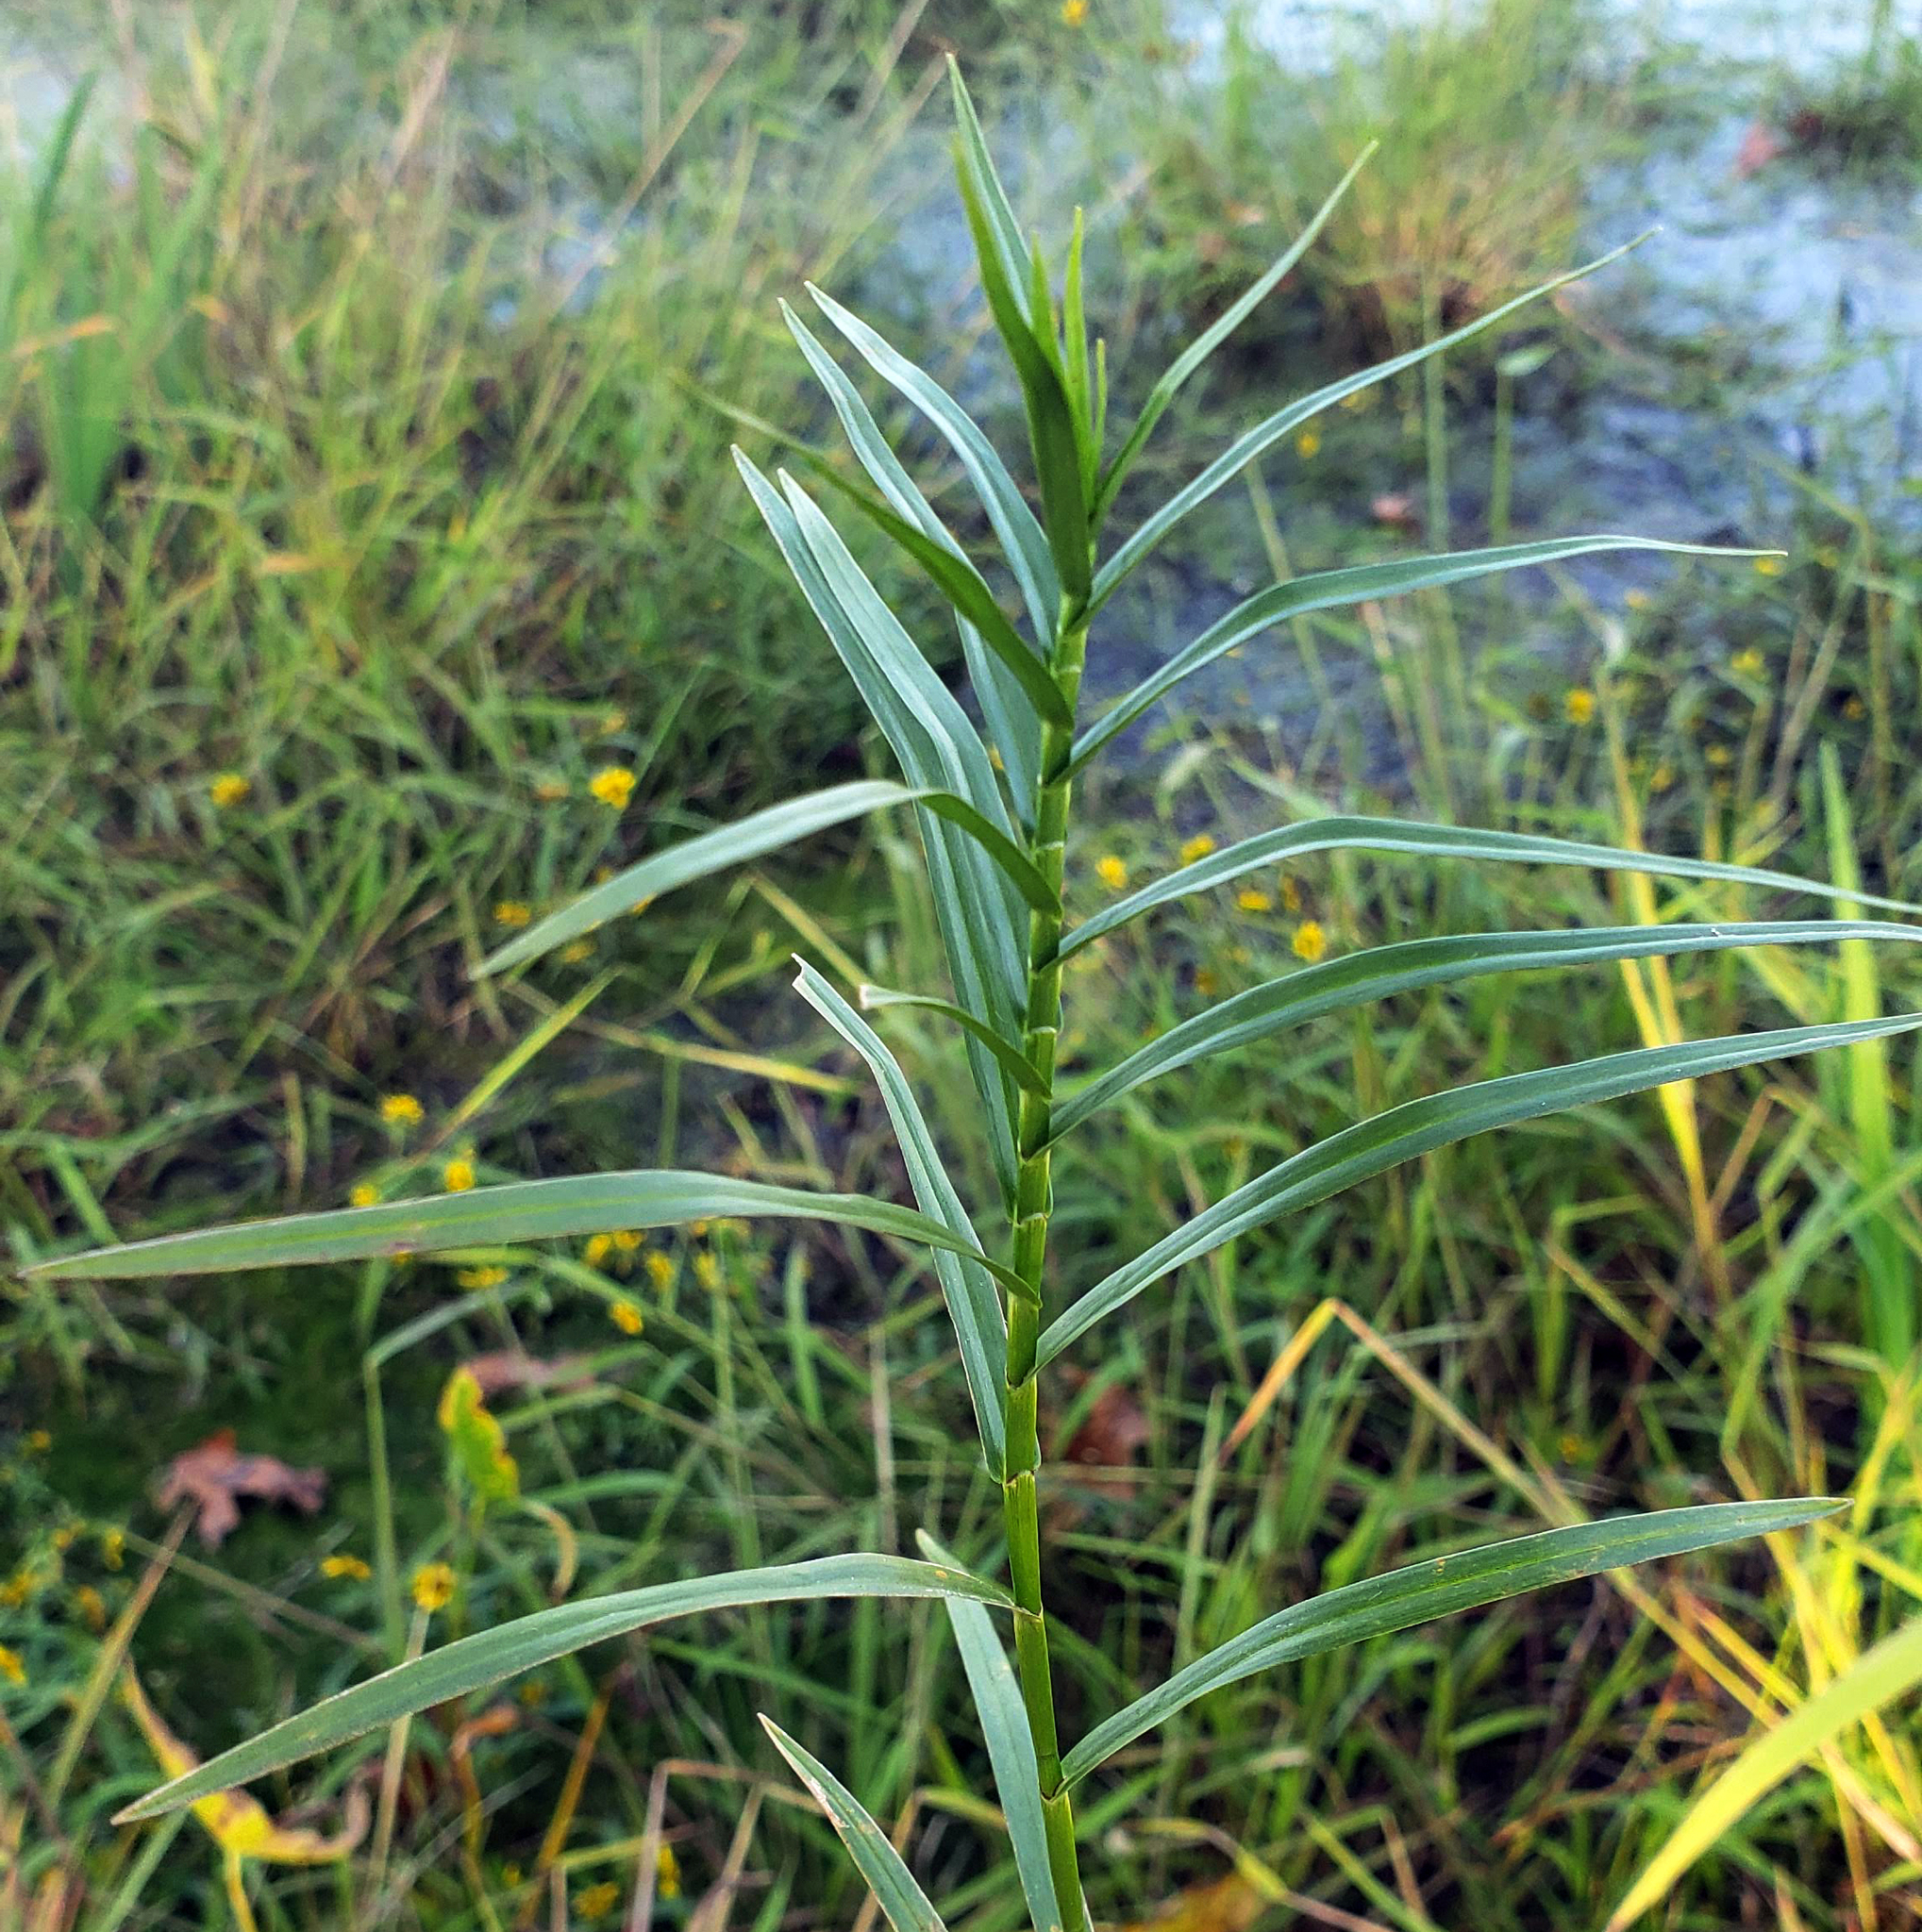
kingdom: Plantae
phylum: Tracheophyta
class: Liliopsida
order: Poales
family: Cyperaceae
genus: Dulichium
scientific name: Dulichium arundinaceum
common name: Three-way sedge
